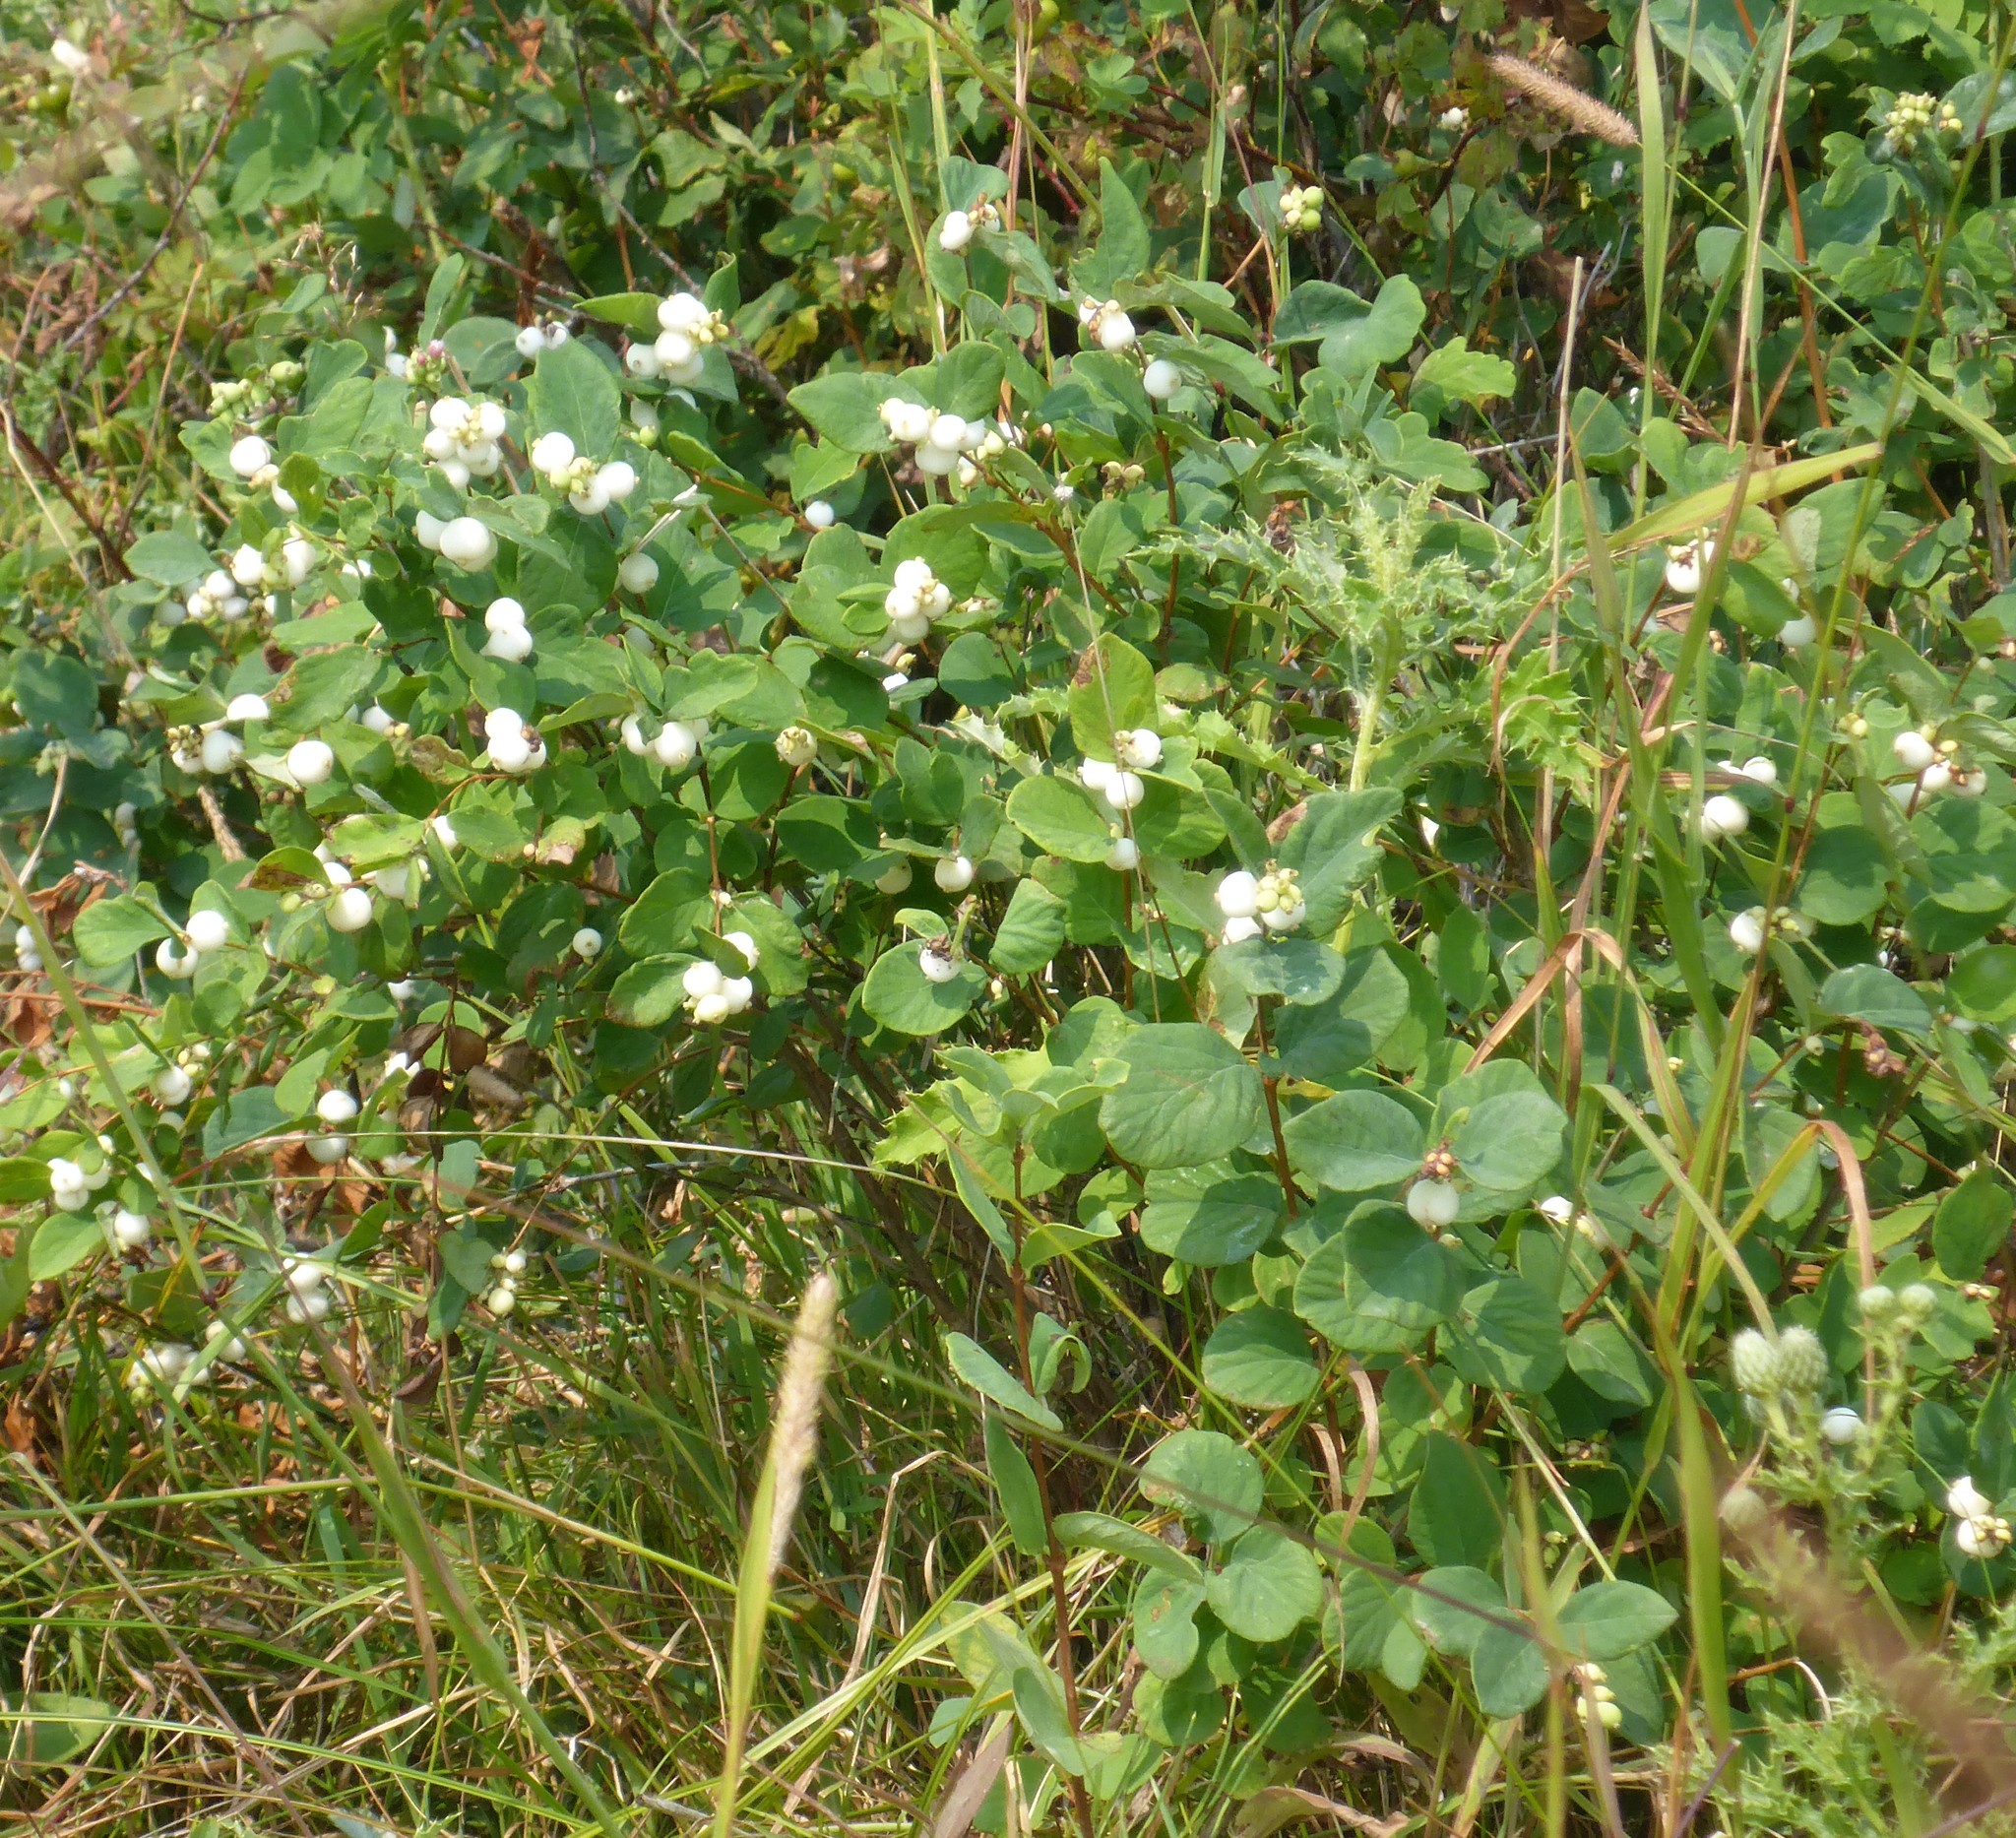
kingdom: Plantae
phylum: Tracheophyta
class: Magnoliopsida
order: Dipsacales
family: Caprifoliaceae
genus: Symphoricarpos
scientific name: Symphoricarpos albus
